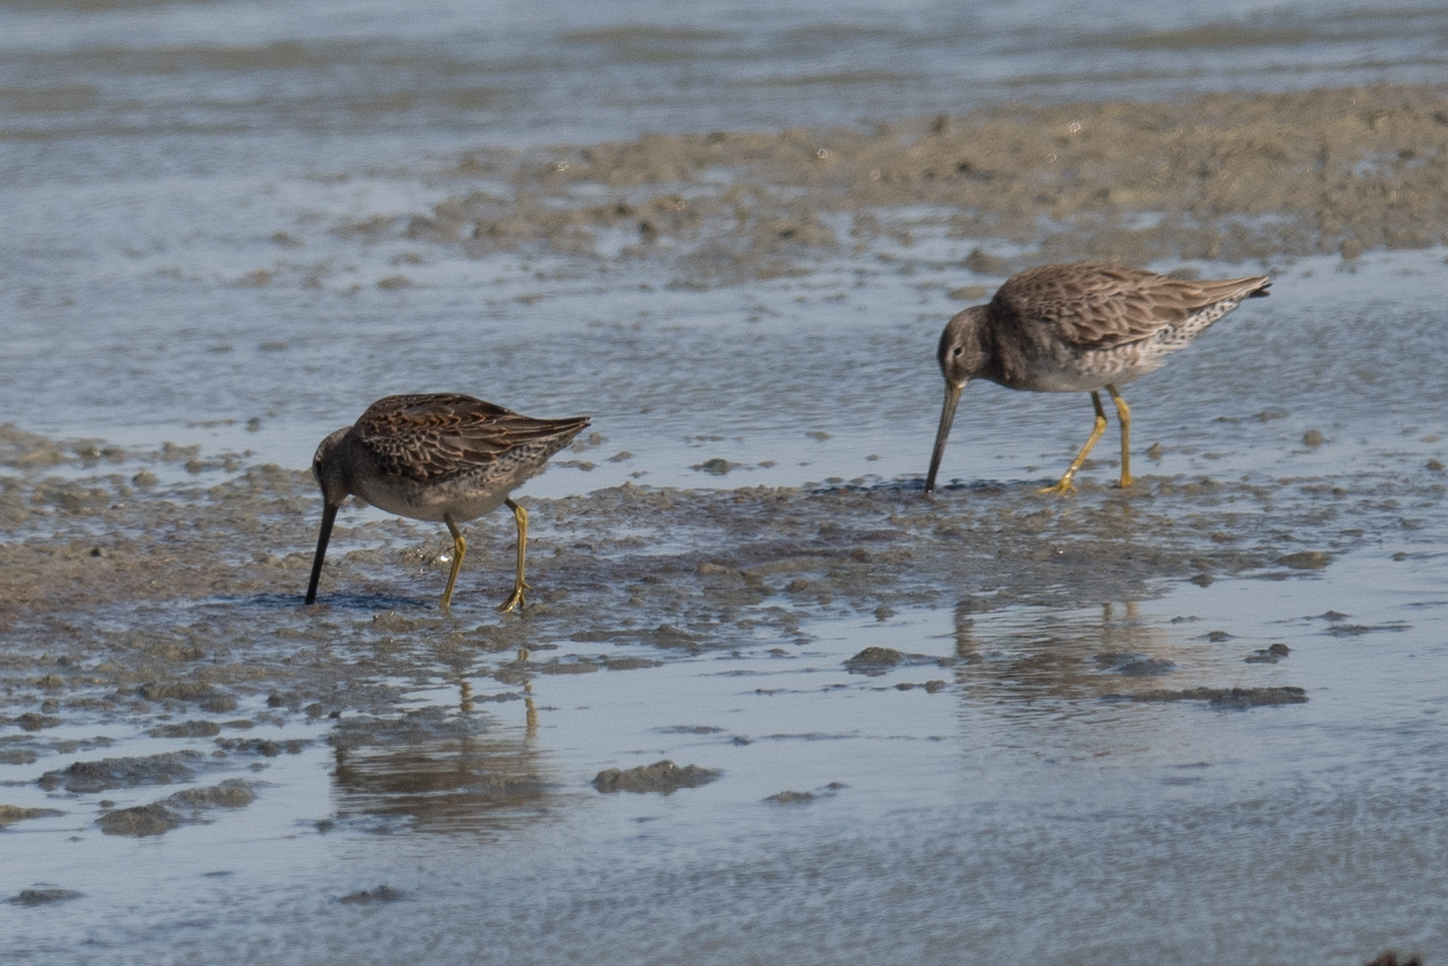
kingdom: Animalia
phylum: Chordata
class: Aves
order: Charadriiformes
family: Scolopacidae
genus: Limnodromus
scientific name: Limnodromus scolopaceus
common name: Long-billed dowitcher
